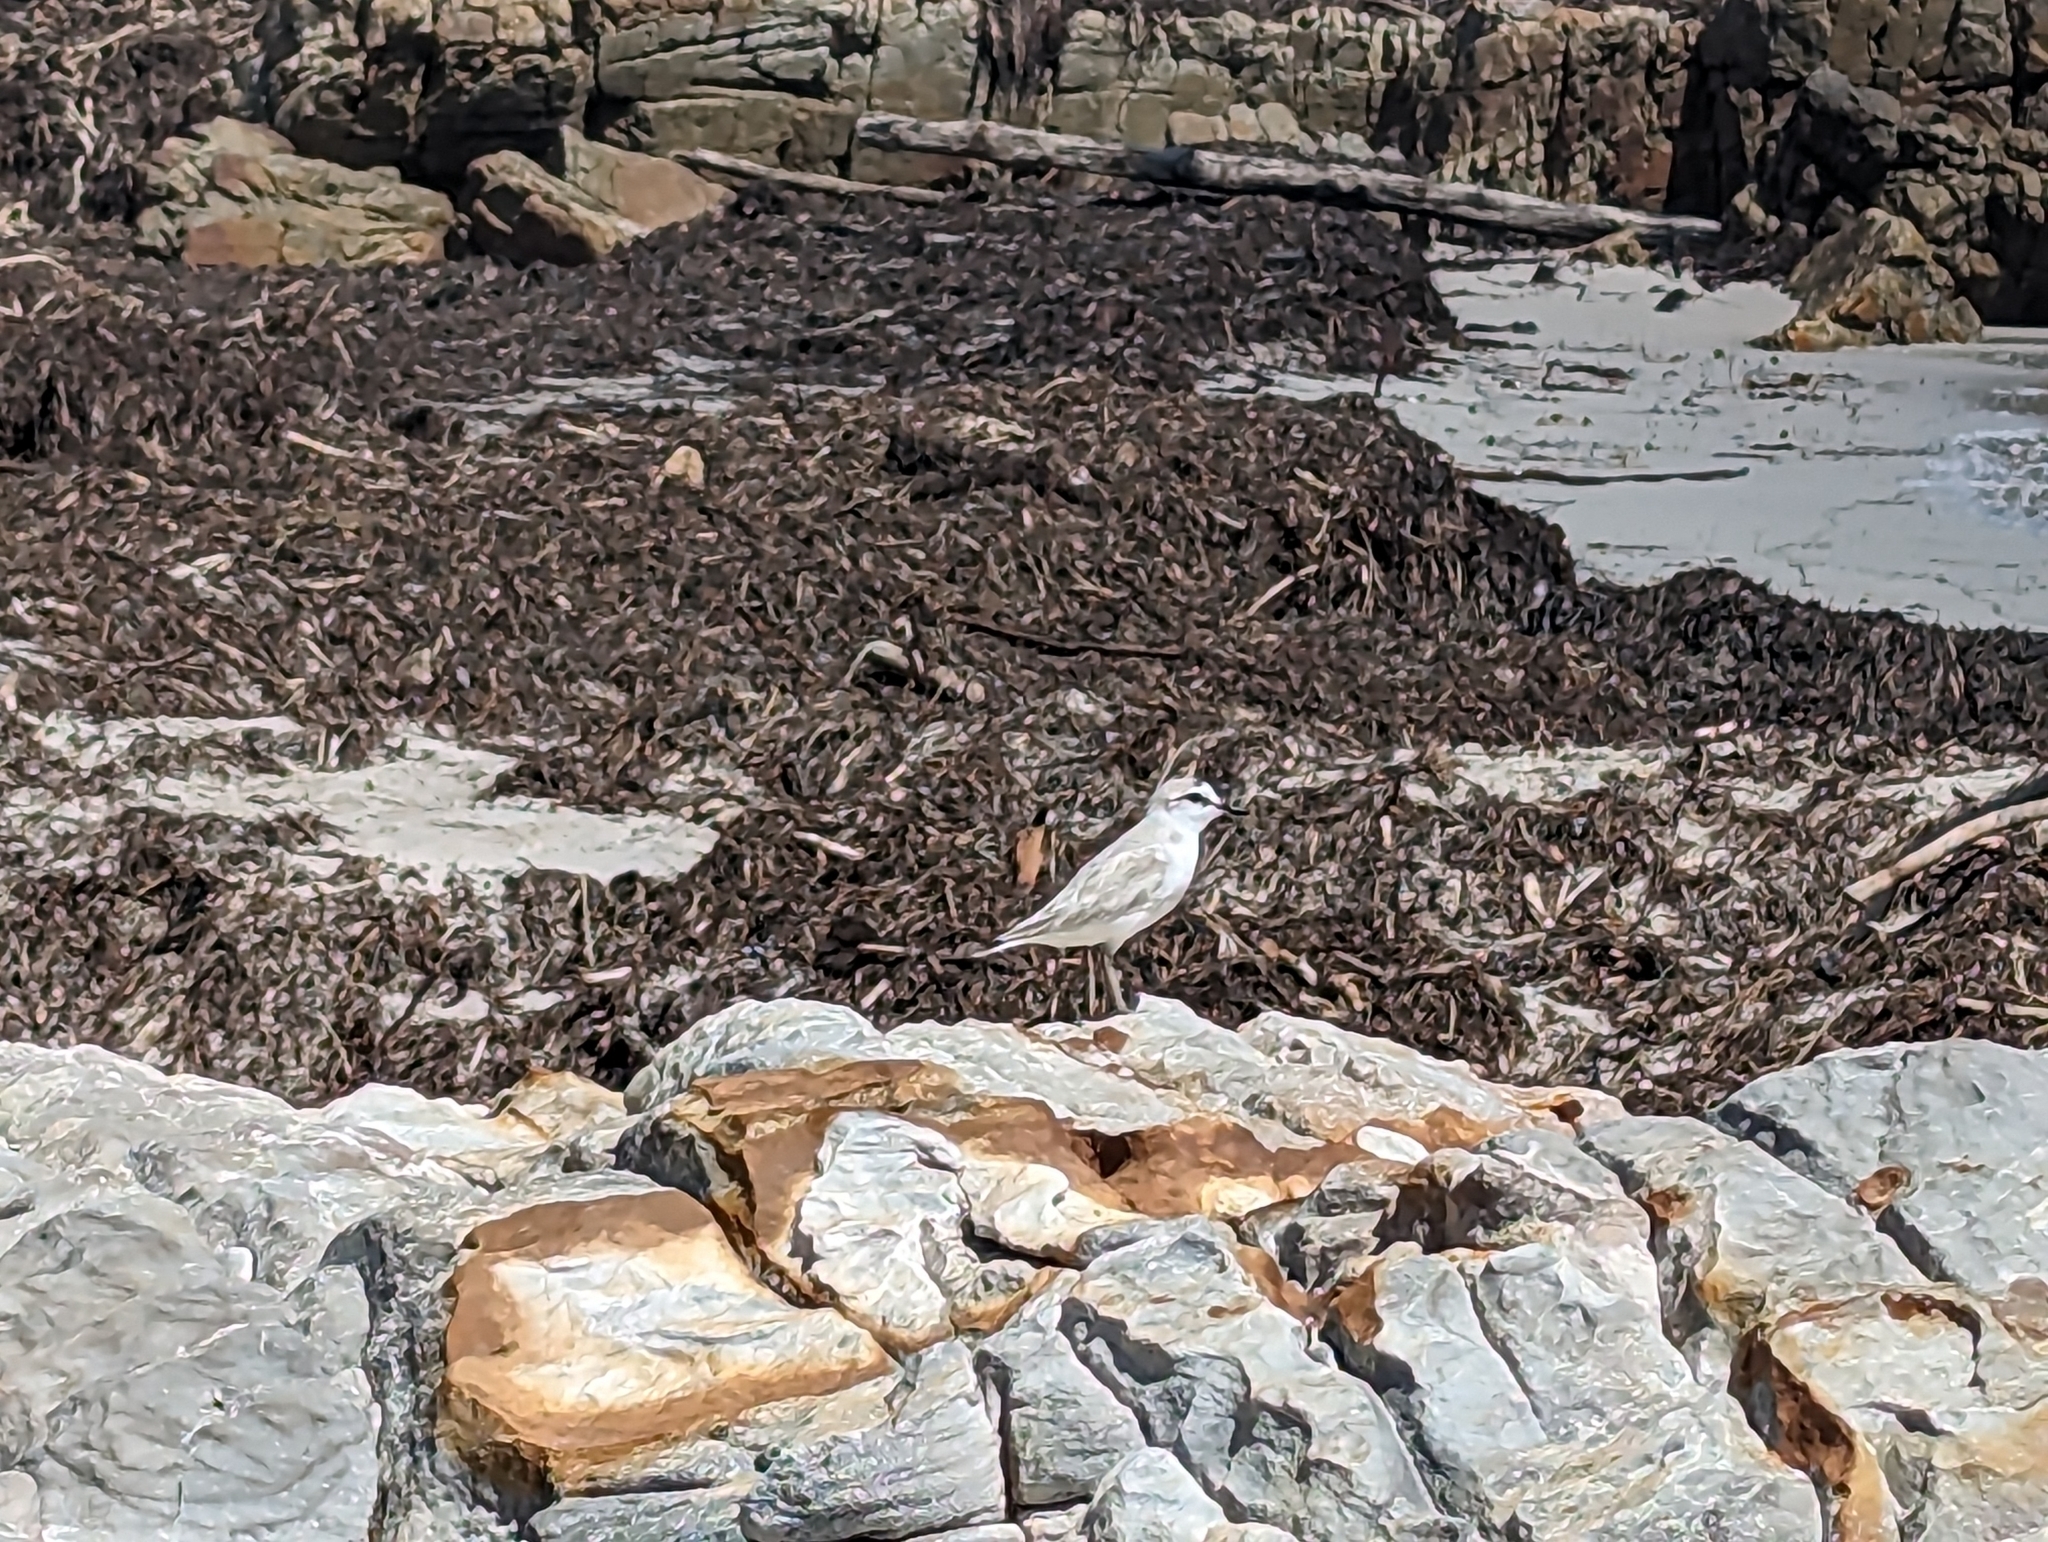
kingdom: Animalia
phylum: Chordata
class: Aves
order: Charadriiformes
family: Charadriidae
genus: Anarhynchus
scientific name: Anarhynchus
